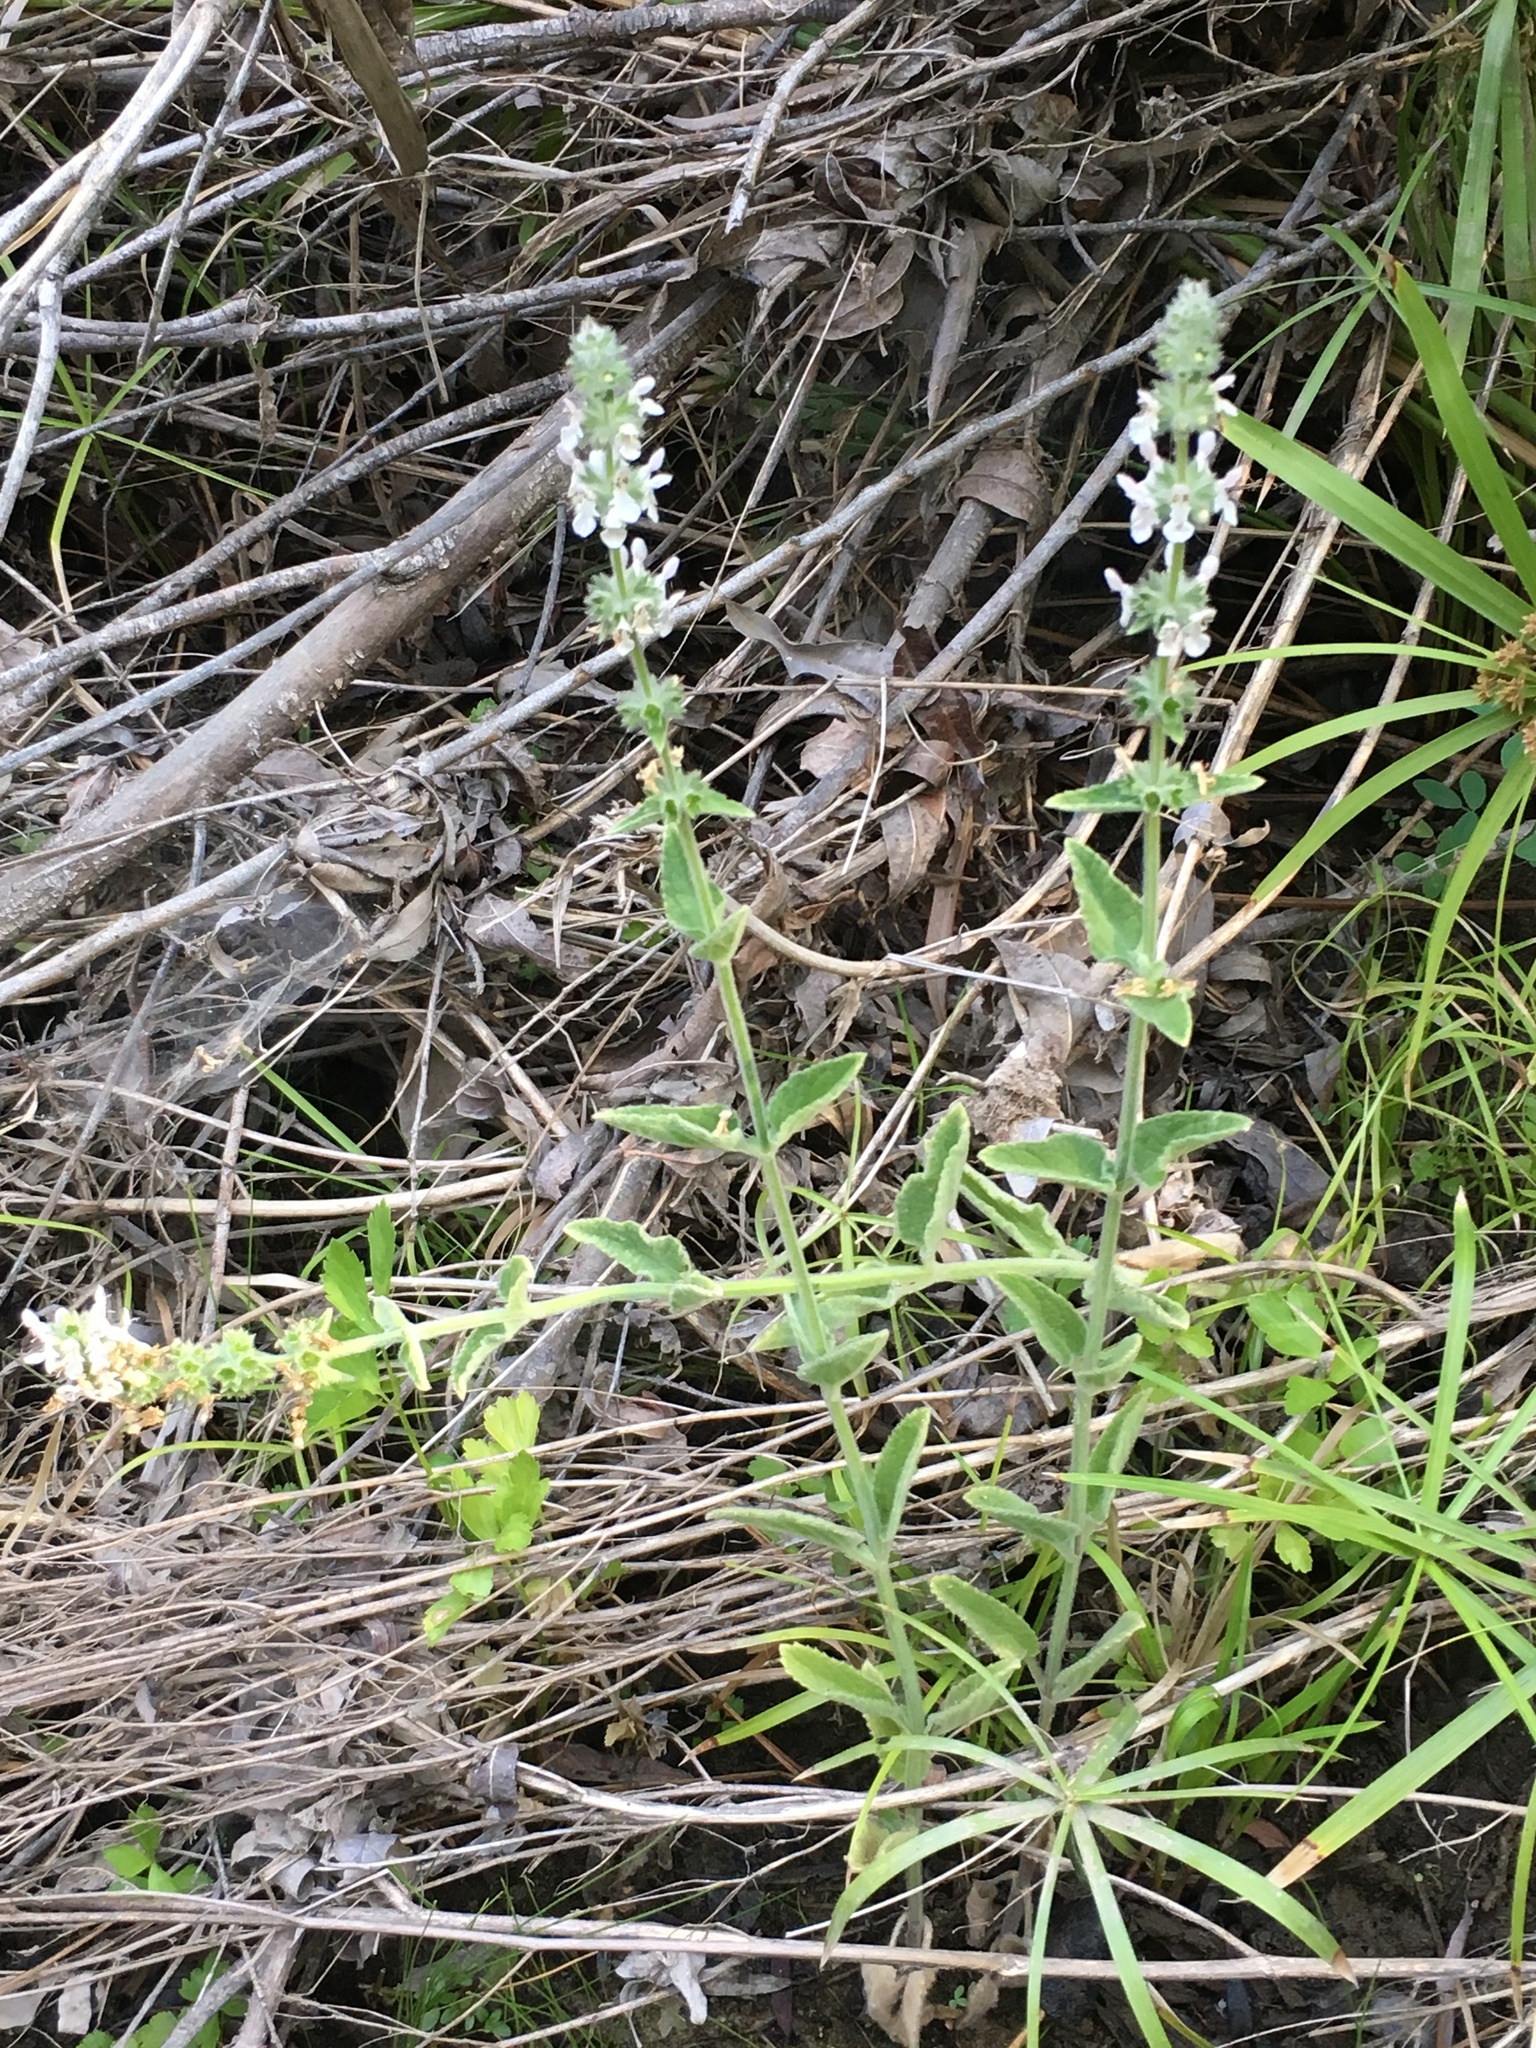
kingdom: Plantae
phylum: Tracheophyta
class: Magnoliopsida
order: Lamiales
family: Lamiaceae
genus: Stachys
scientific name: Stachys albens
